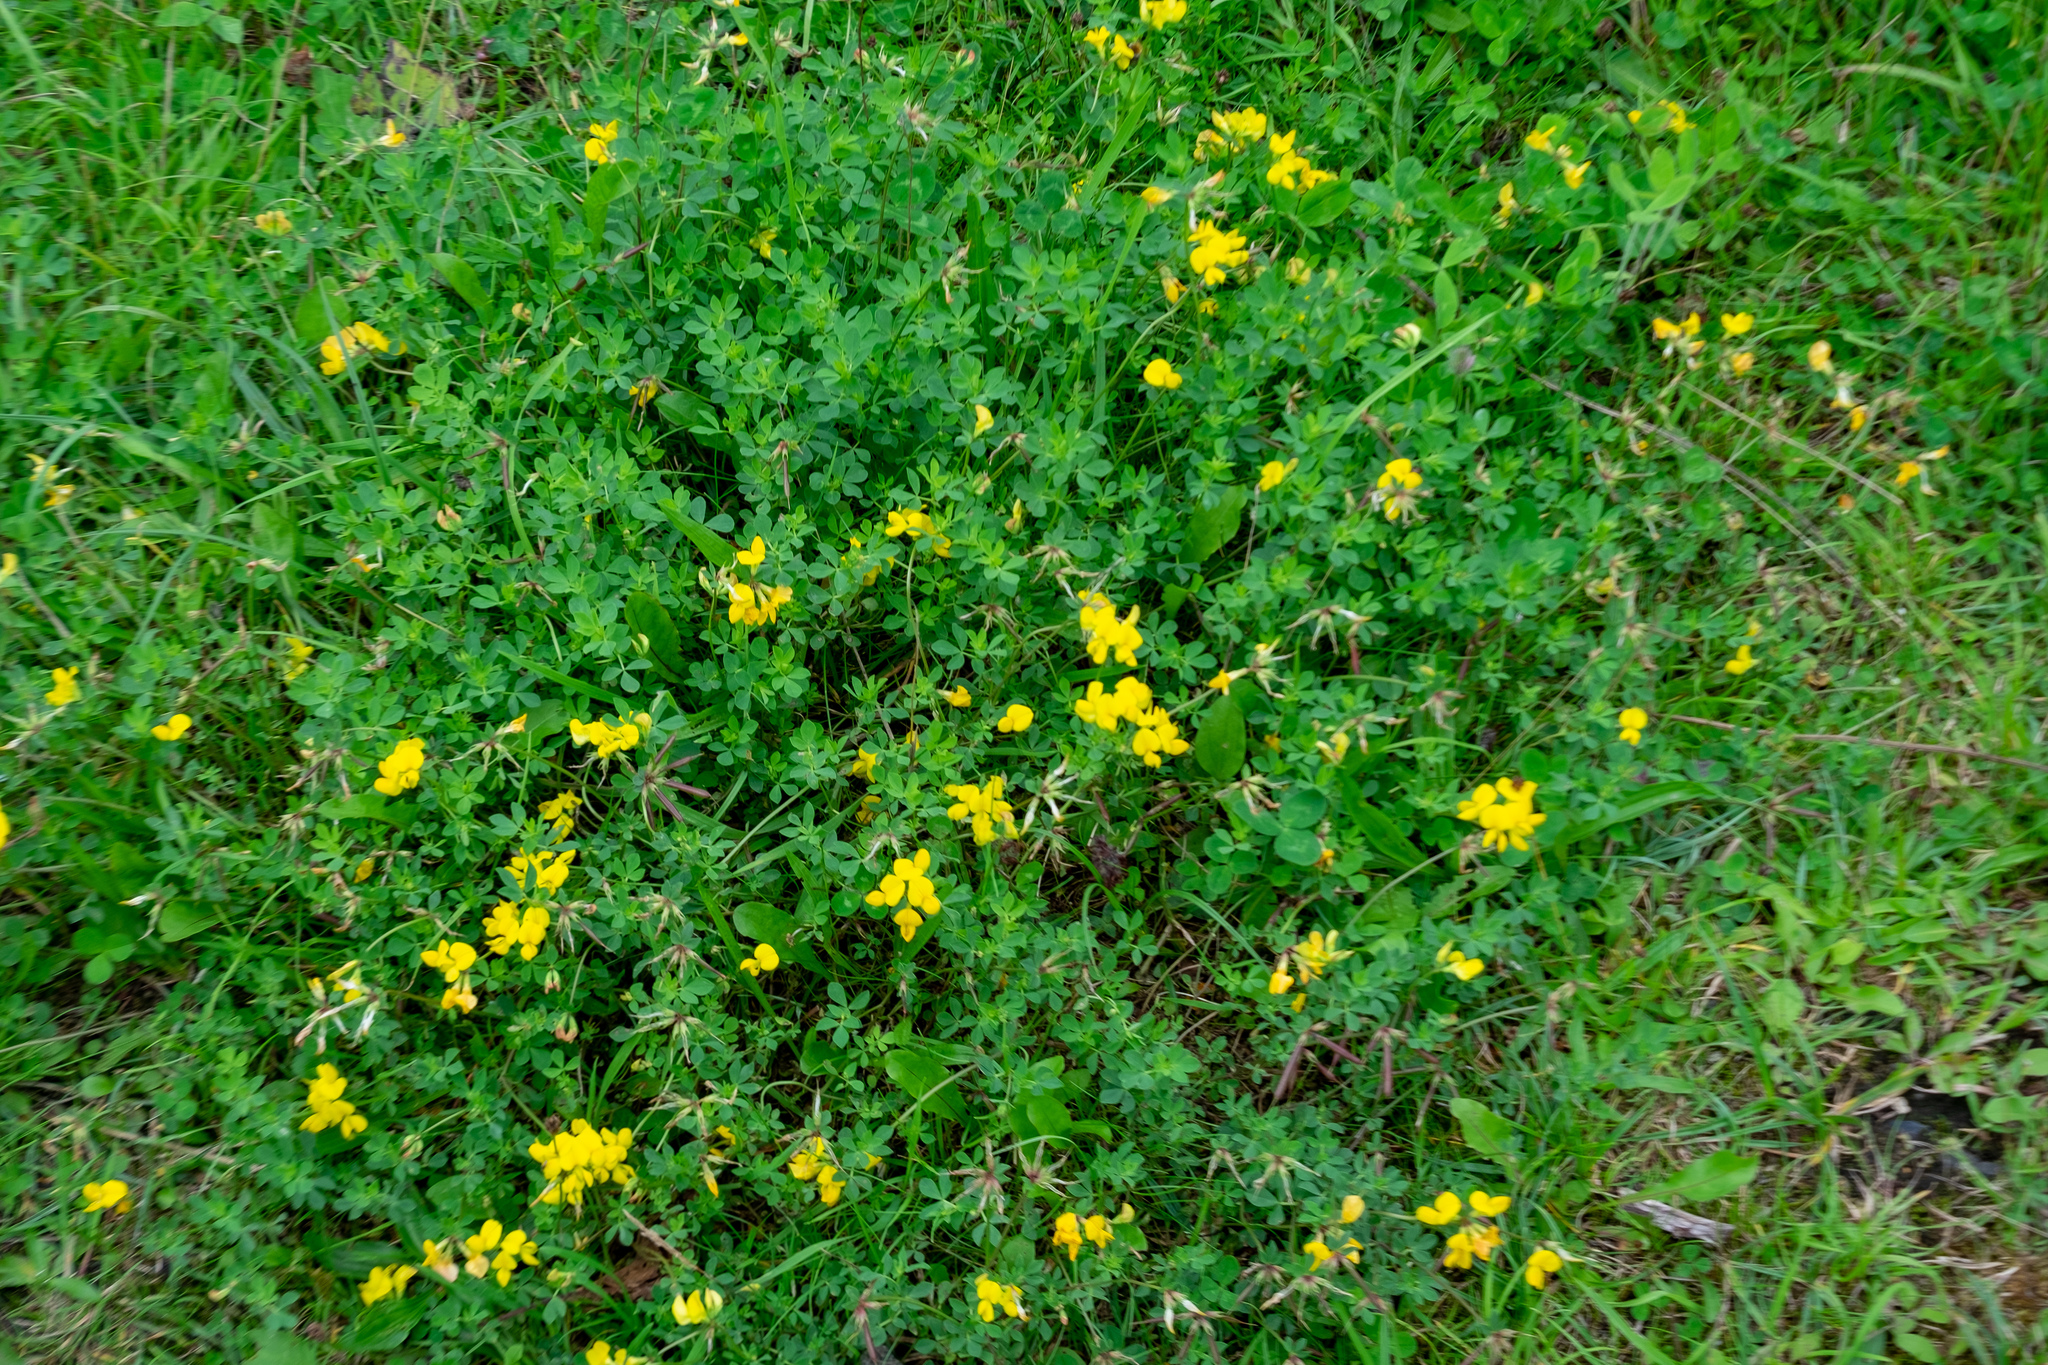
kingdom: Plantae
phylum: Tracheophyta
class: Magnoliopsida
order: Fabales
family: Fabaceae
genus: Lotus
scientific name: Lotus corniculatus
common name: Common bird's-foot-trefoil
